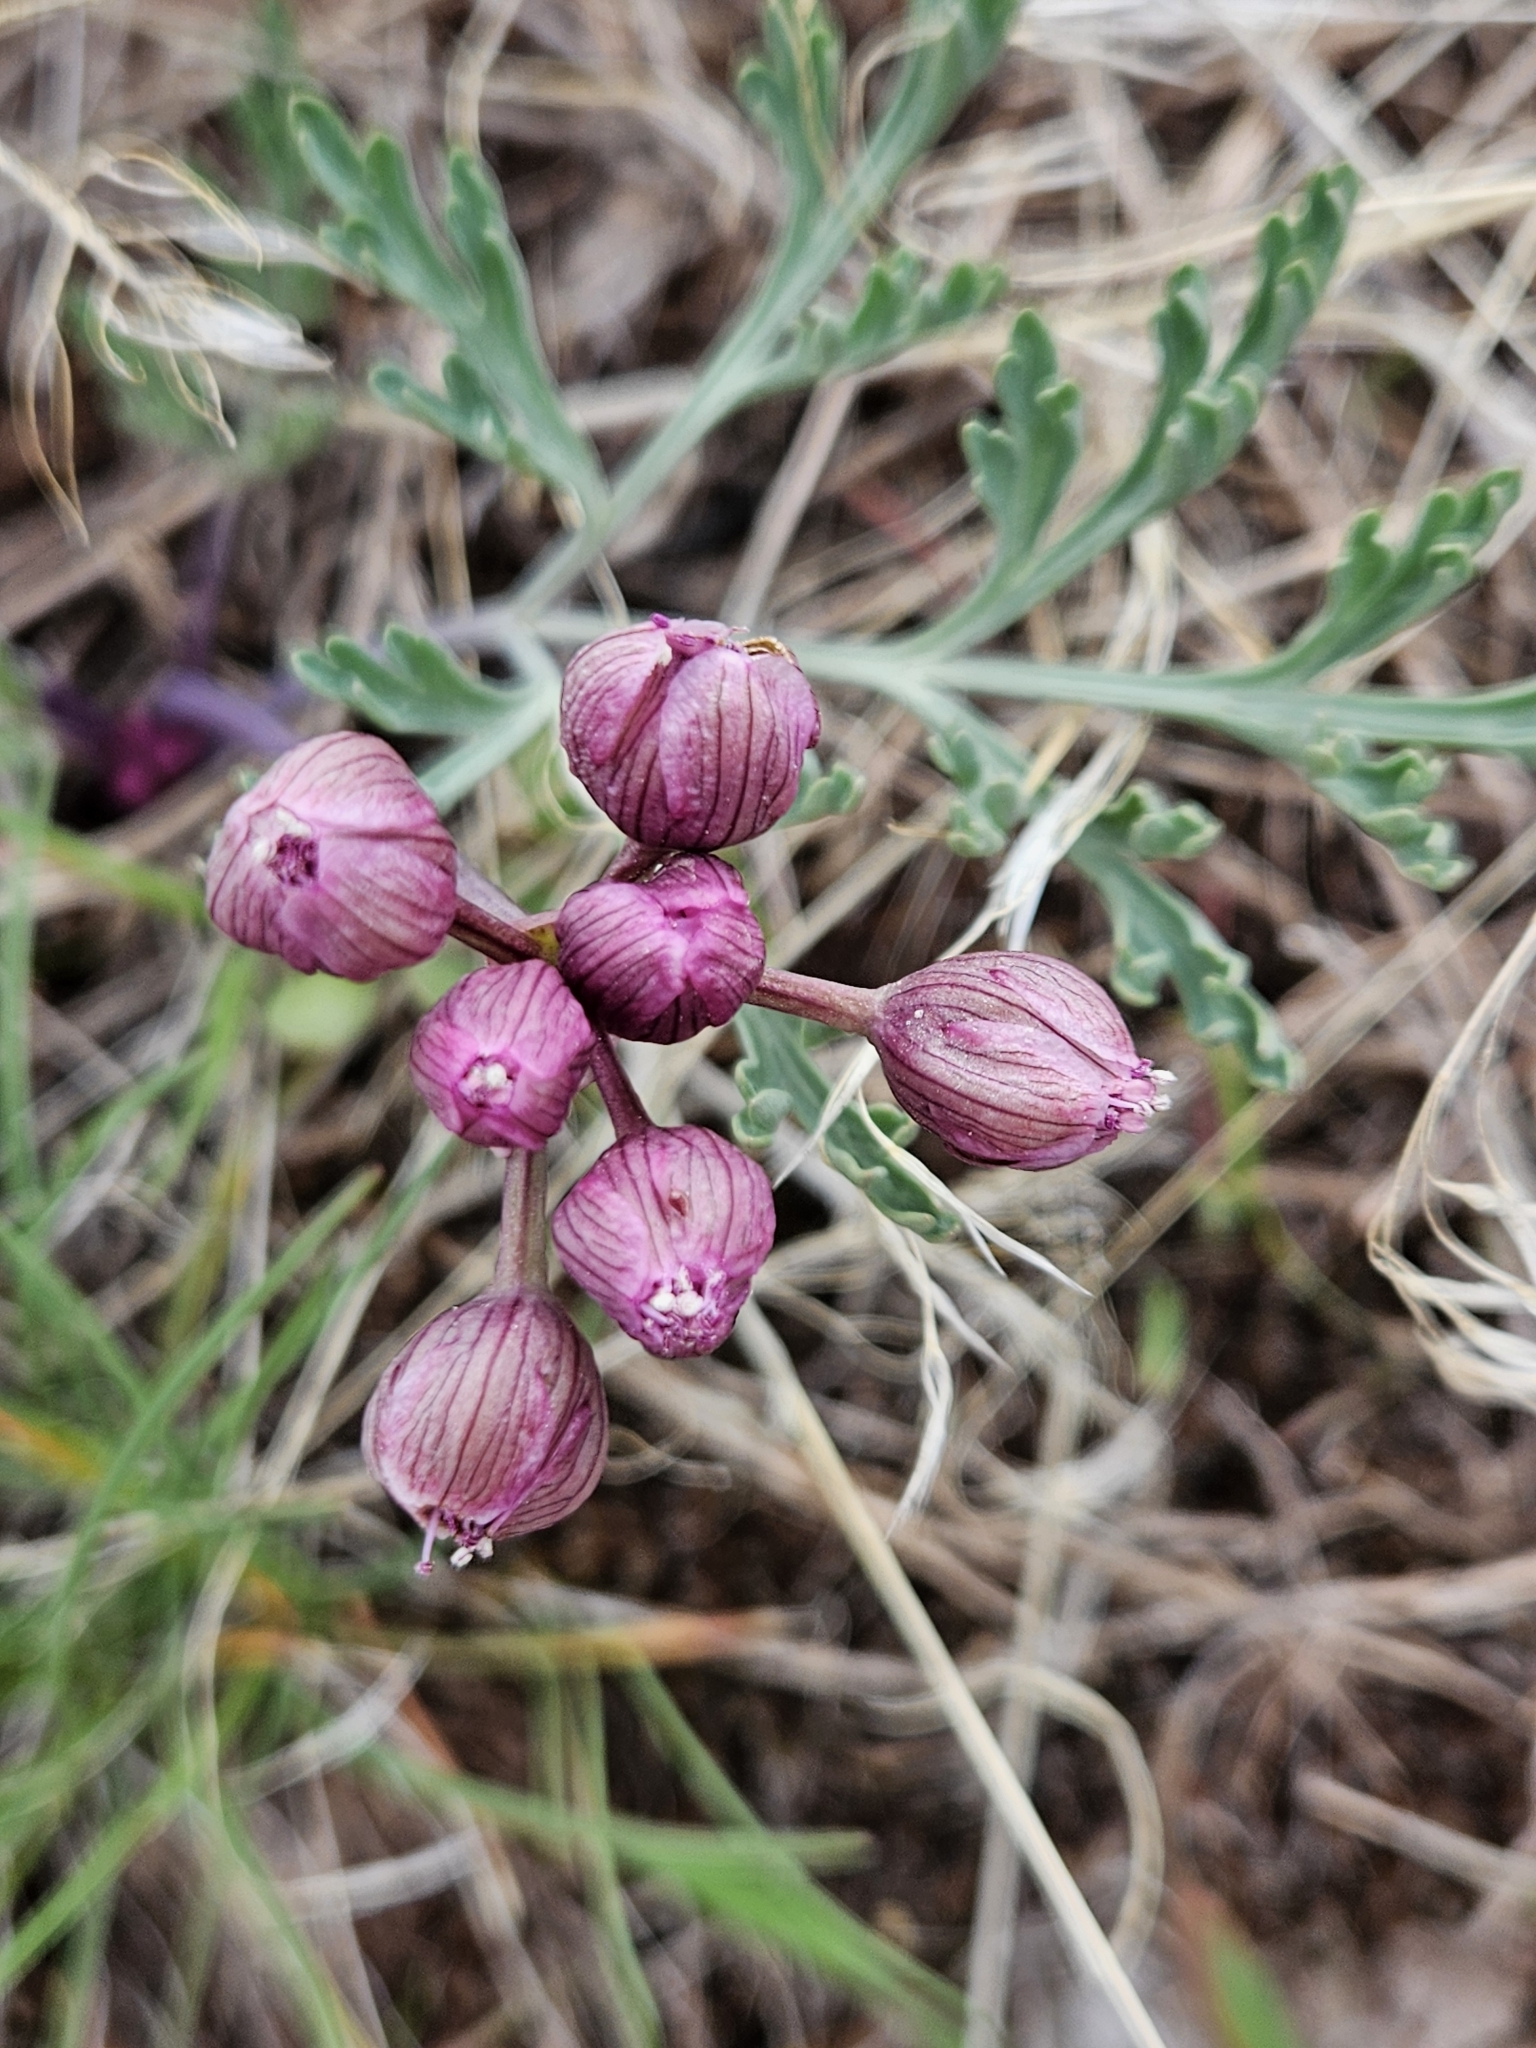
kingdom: Plantae
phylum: Tracheophyta
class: Magnoliopsida
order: Apiales
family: Apiaceae
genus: Vesper
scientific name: Vesper multinervatus
